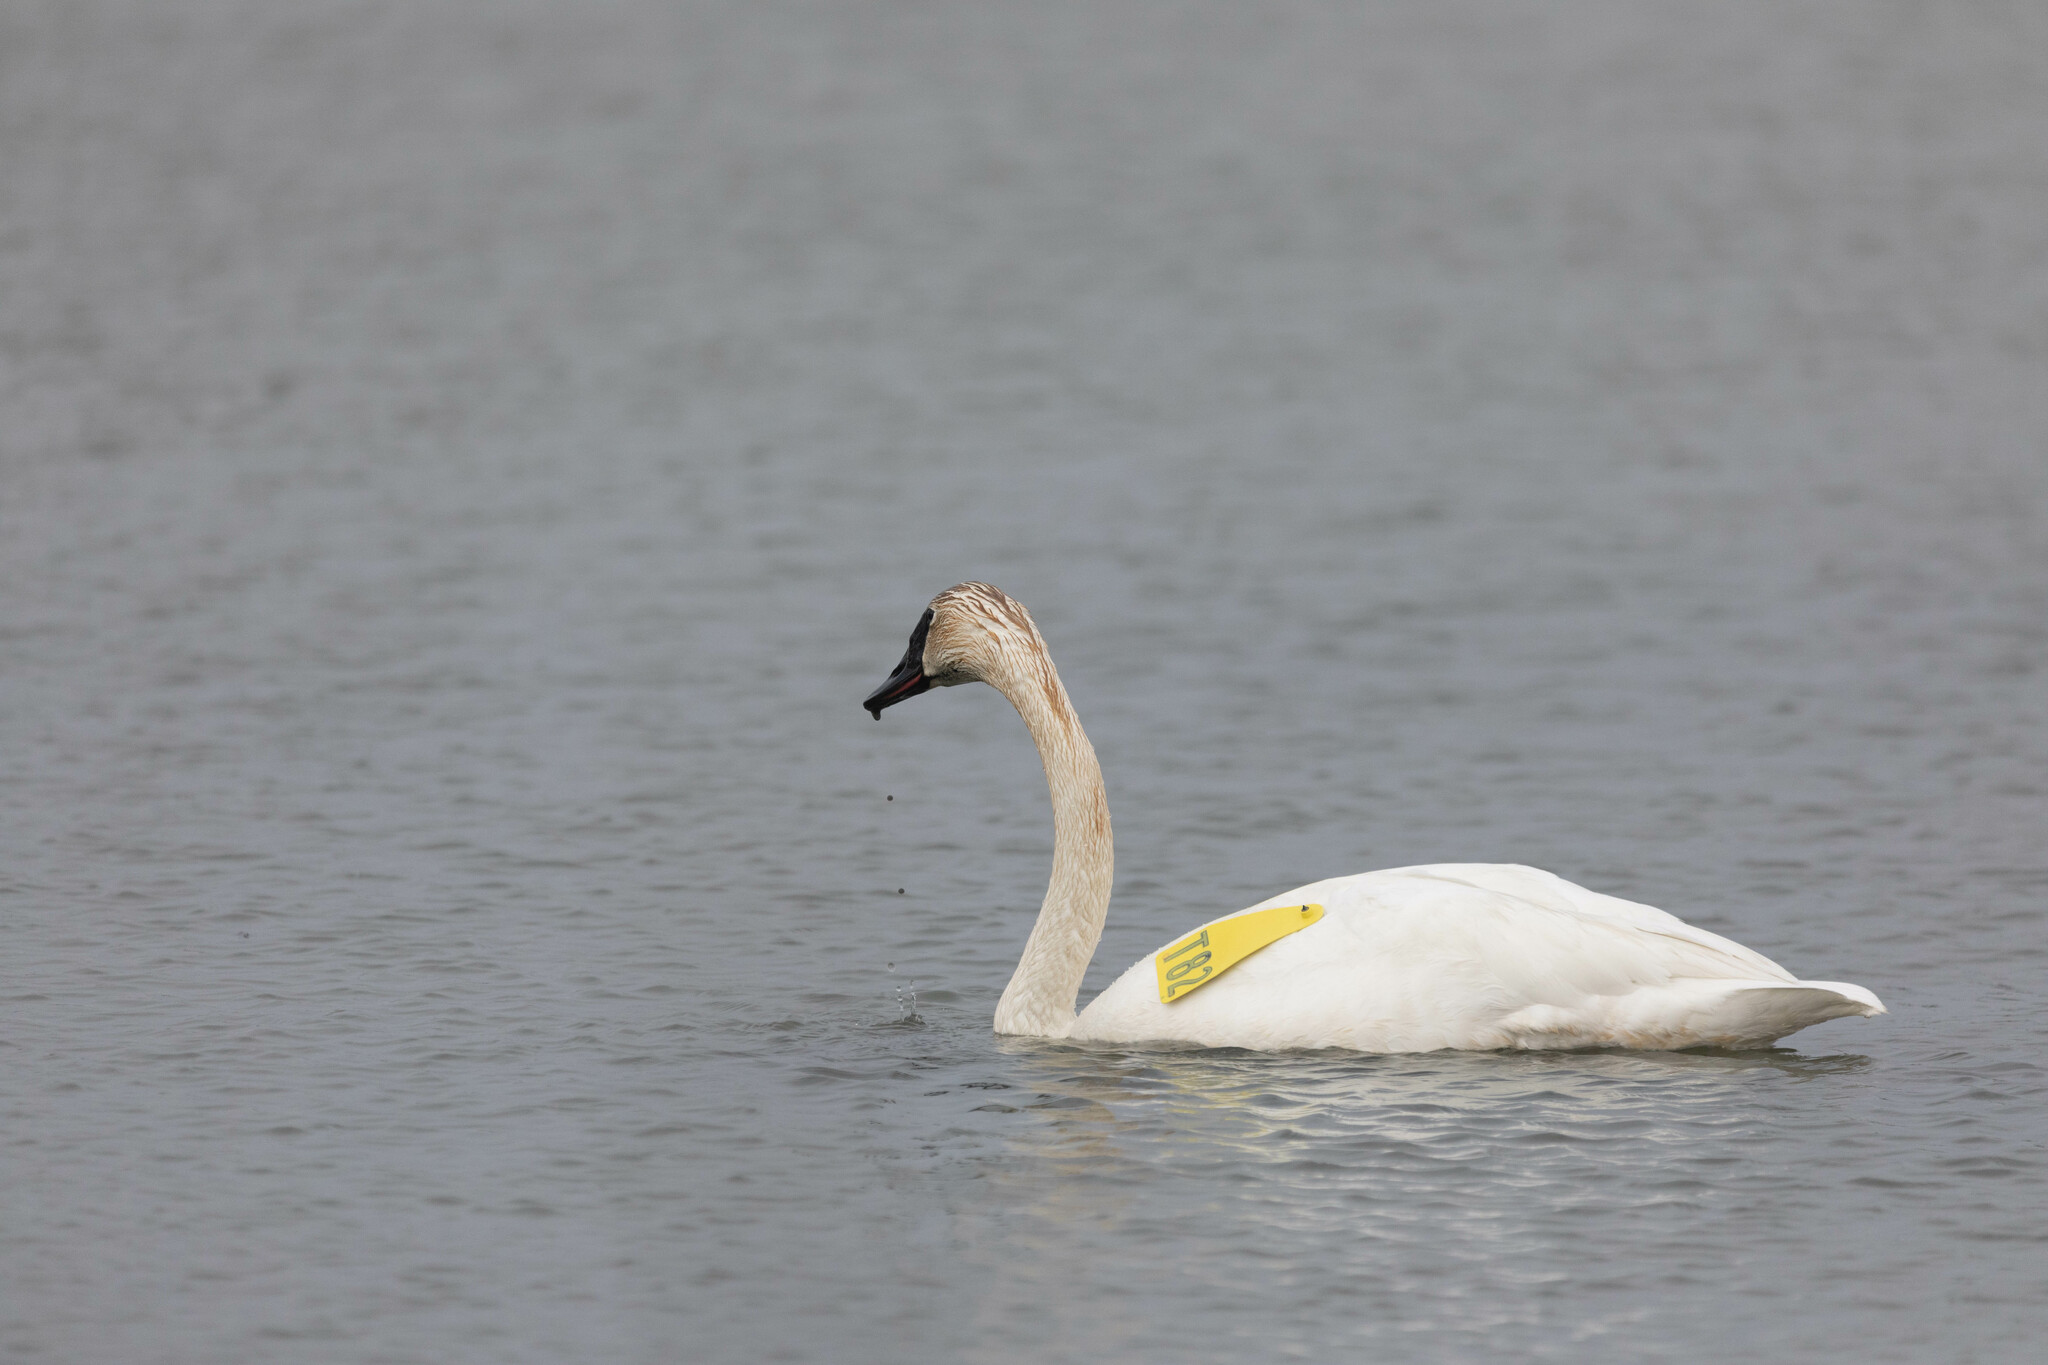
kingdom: Animalia
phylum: Chordata
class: Aves
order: Anseriformes
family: Anatidae
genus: Cygnus
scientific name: Cygnus buccinator
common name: Trumpeter swan
